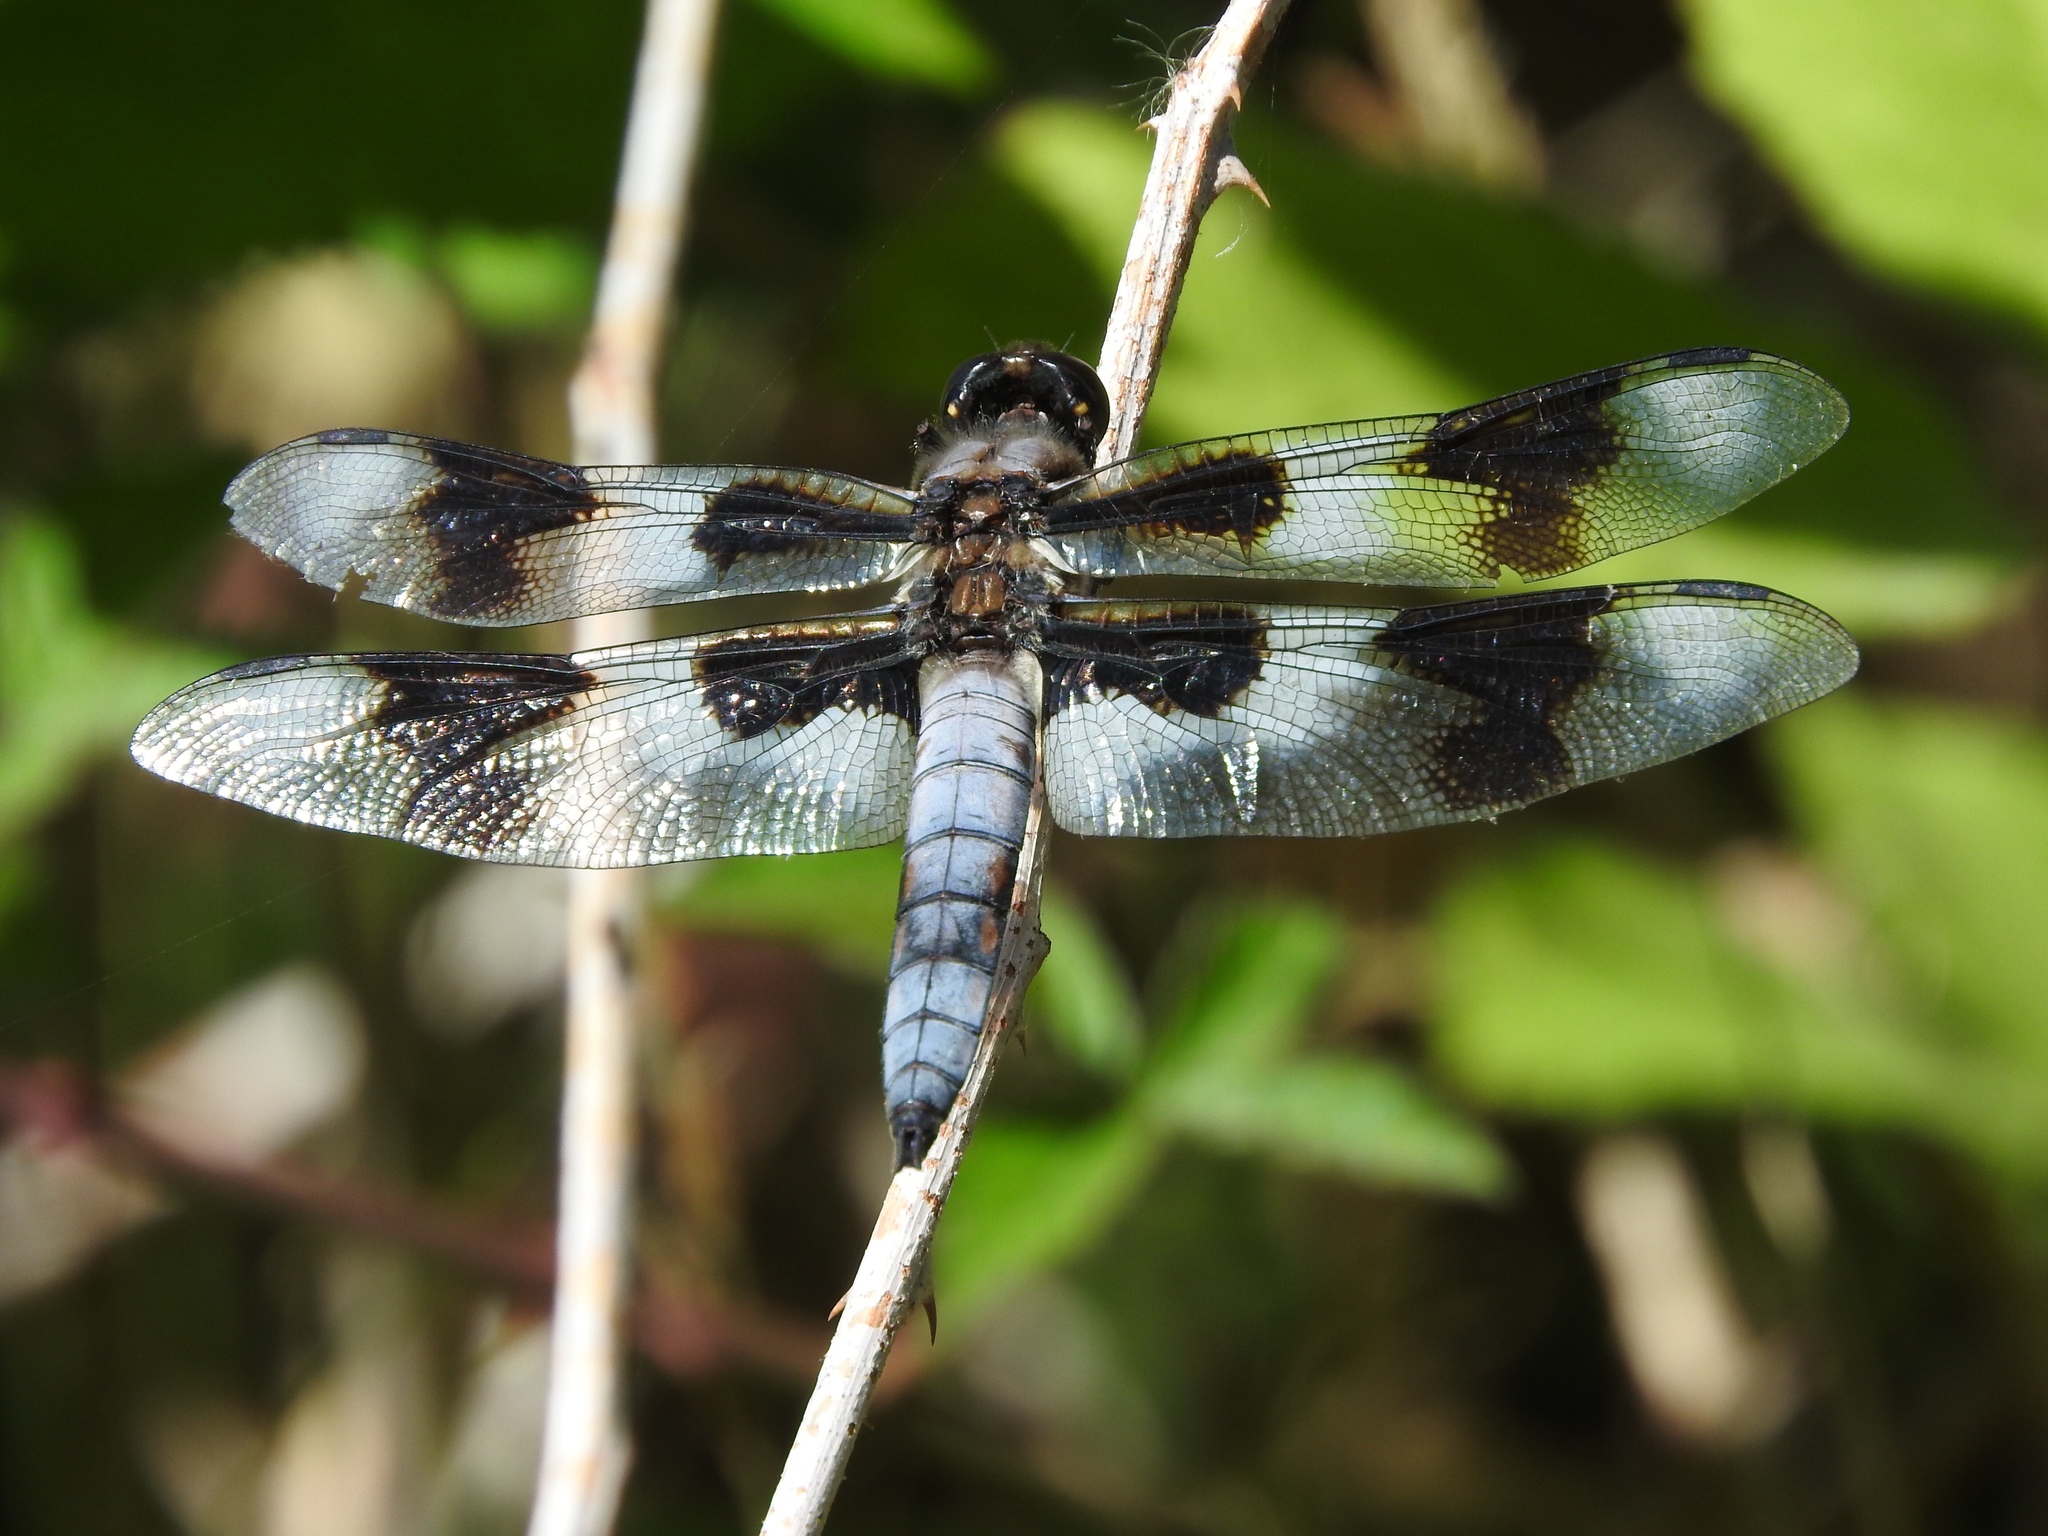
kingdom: Animalia
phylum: Arthropoda
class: Insecta
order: Odonata
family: Libellulidae
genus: Libellula
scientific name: Libellula forensis
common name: Eight-spotted skimmer
